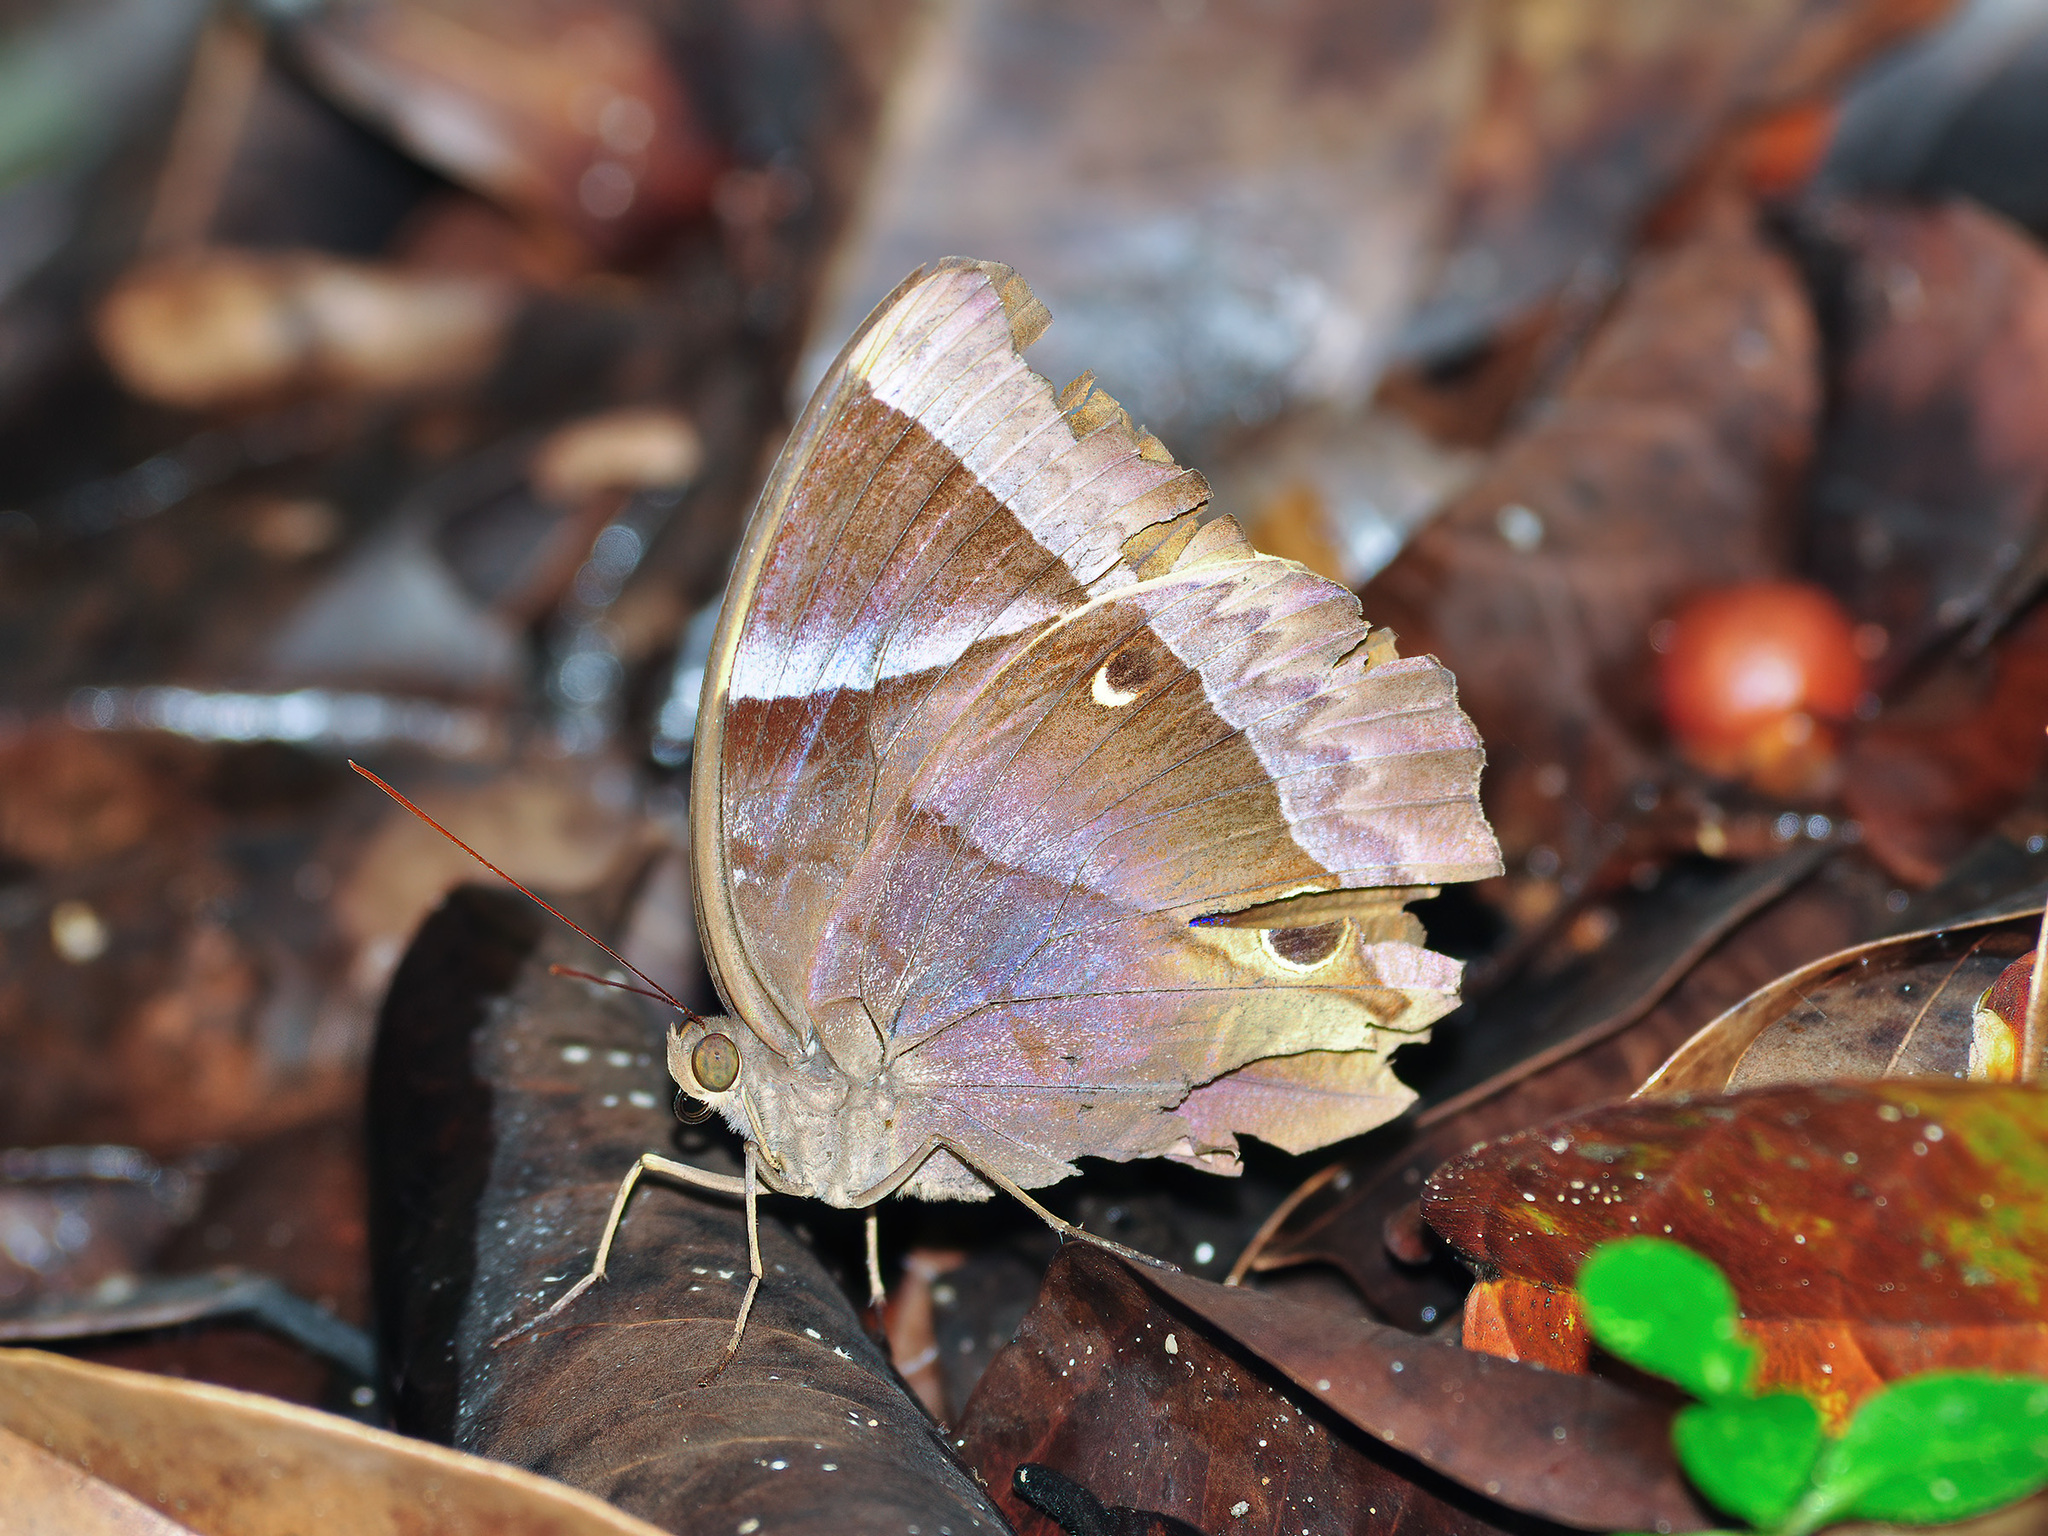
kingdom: Animalia
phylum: Arthropoda
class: Insecta
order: Lepidoptera
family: Nymphalidae
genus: Thaumantis
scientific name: Thaumantis klugius
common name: Dark blue jungle glory
